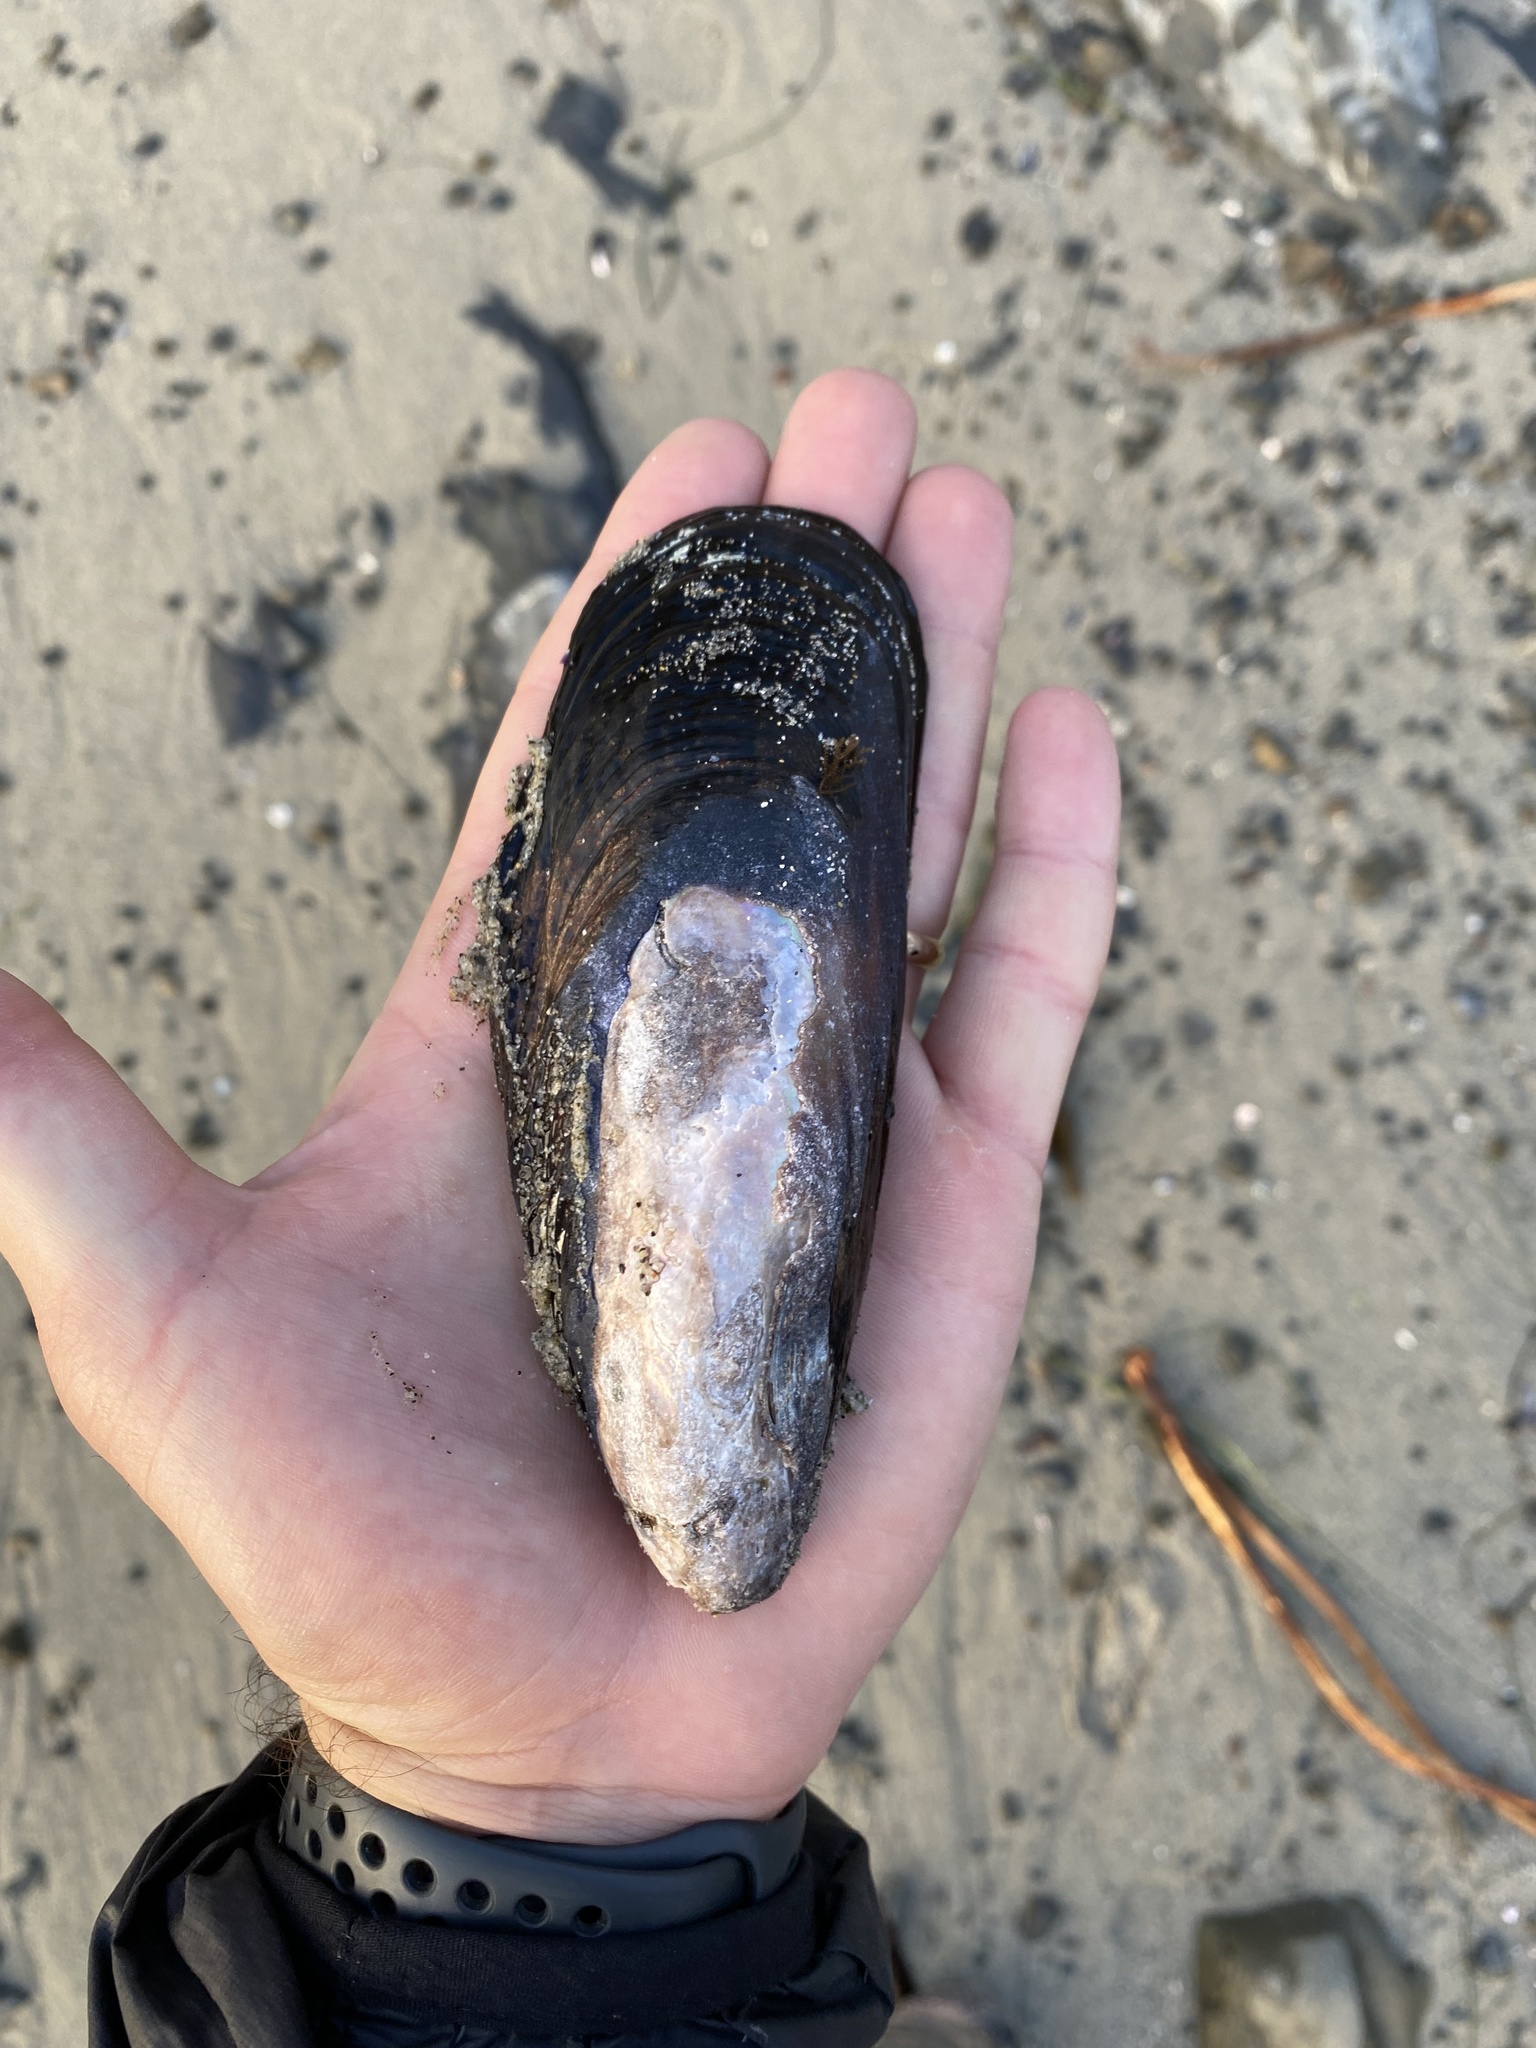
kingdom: Animalia
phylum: Mollusca
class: Bivalvia
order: Mytilida
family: Mytilidae
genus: Mytilus
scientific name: Mytilus californianus
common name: California mussel
